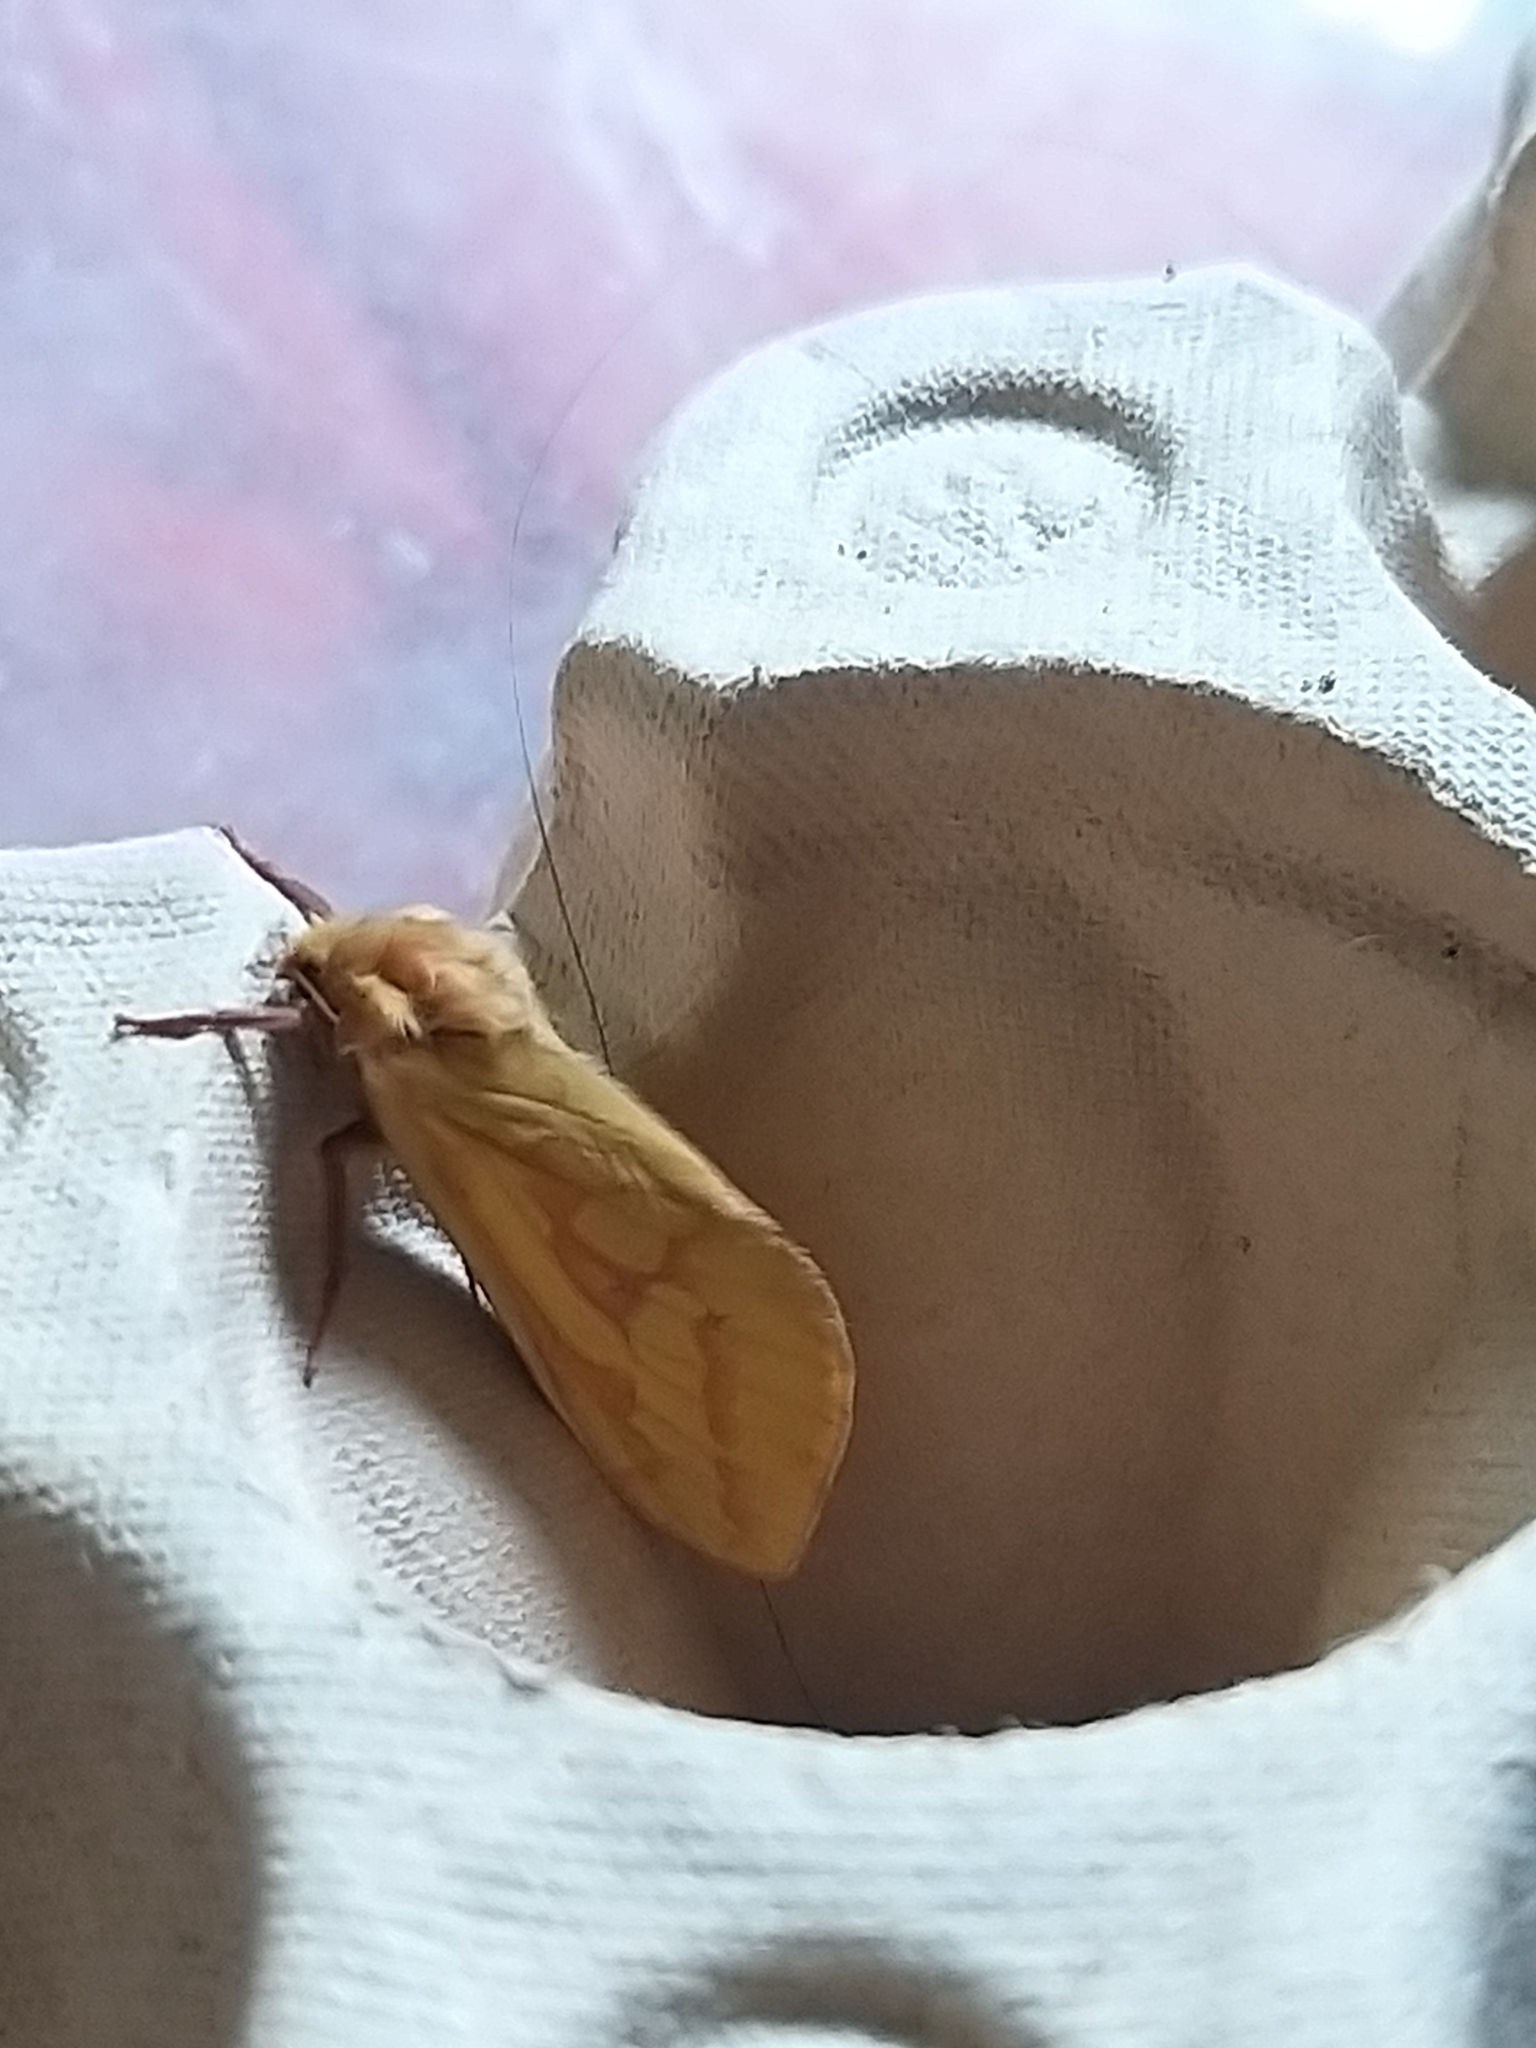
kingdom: Animalia
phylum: Arthropoda
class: Insecta
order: Lepidoptera
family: Hepialidae
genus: Hepialus
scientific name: Hepialus humuli
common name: Ghost moth
